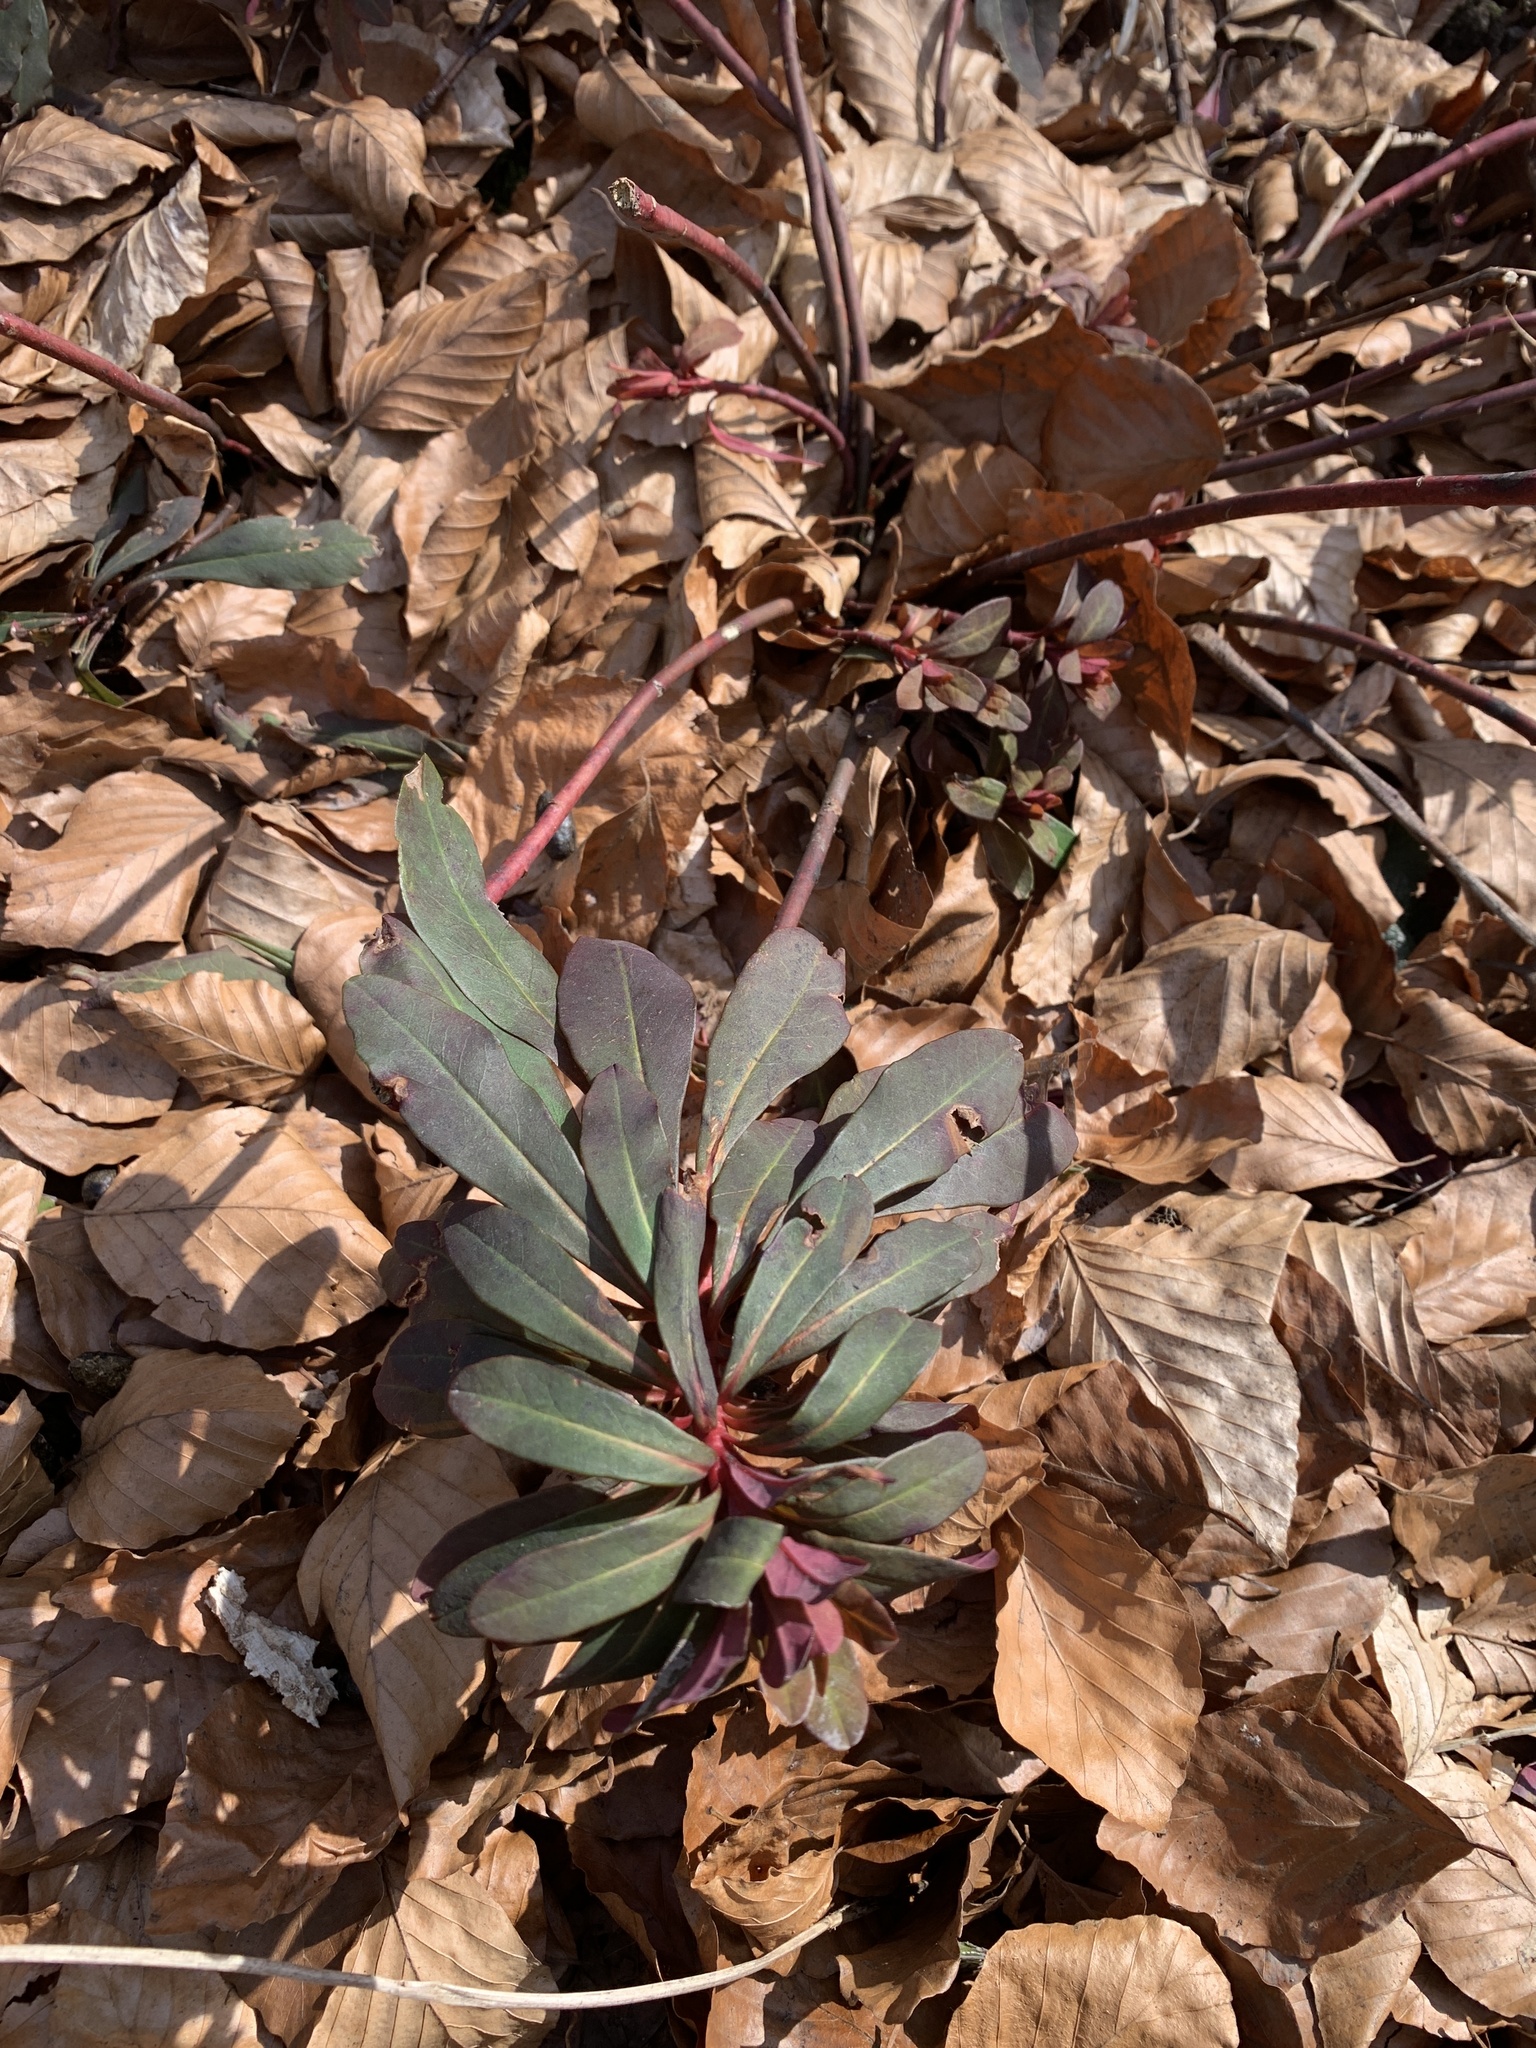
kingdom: Plantae
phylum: Tracheophyta
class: Magnoliopsida
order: Malpighiales
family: Euphorbiaceae
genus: Euphorbia
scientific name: Euphorbia amygdaloides
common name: Wood spurge
